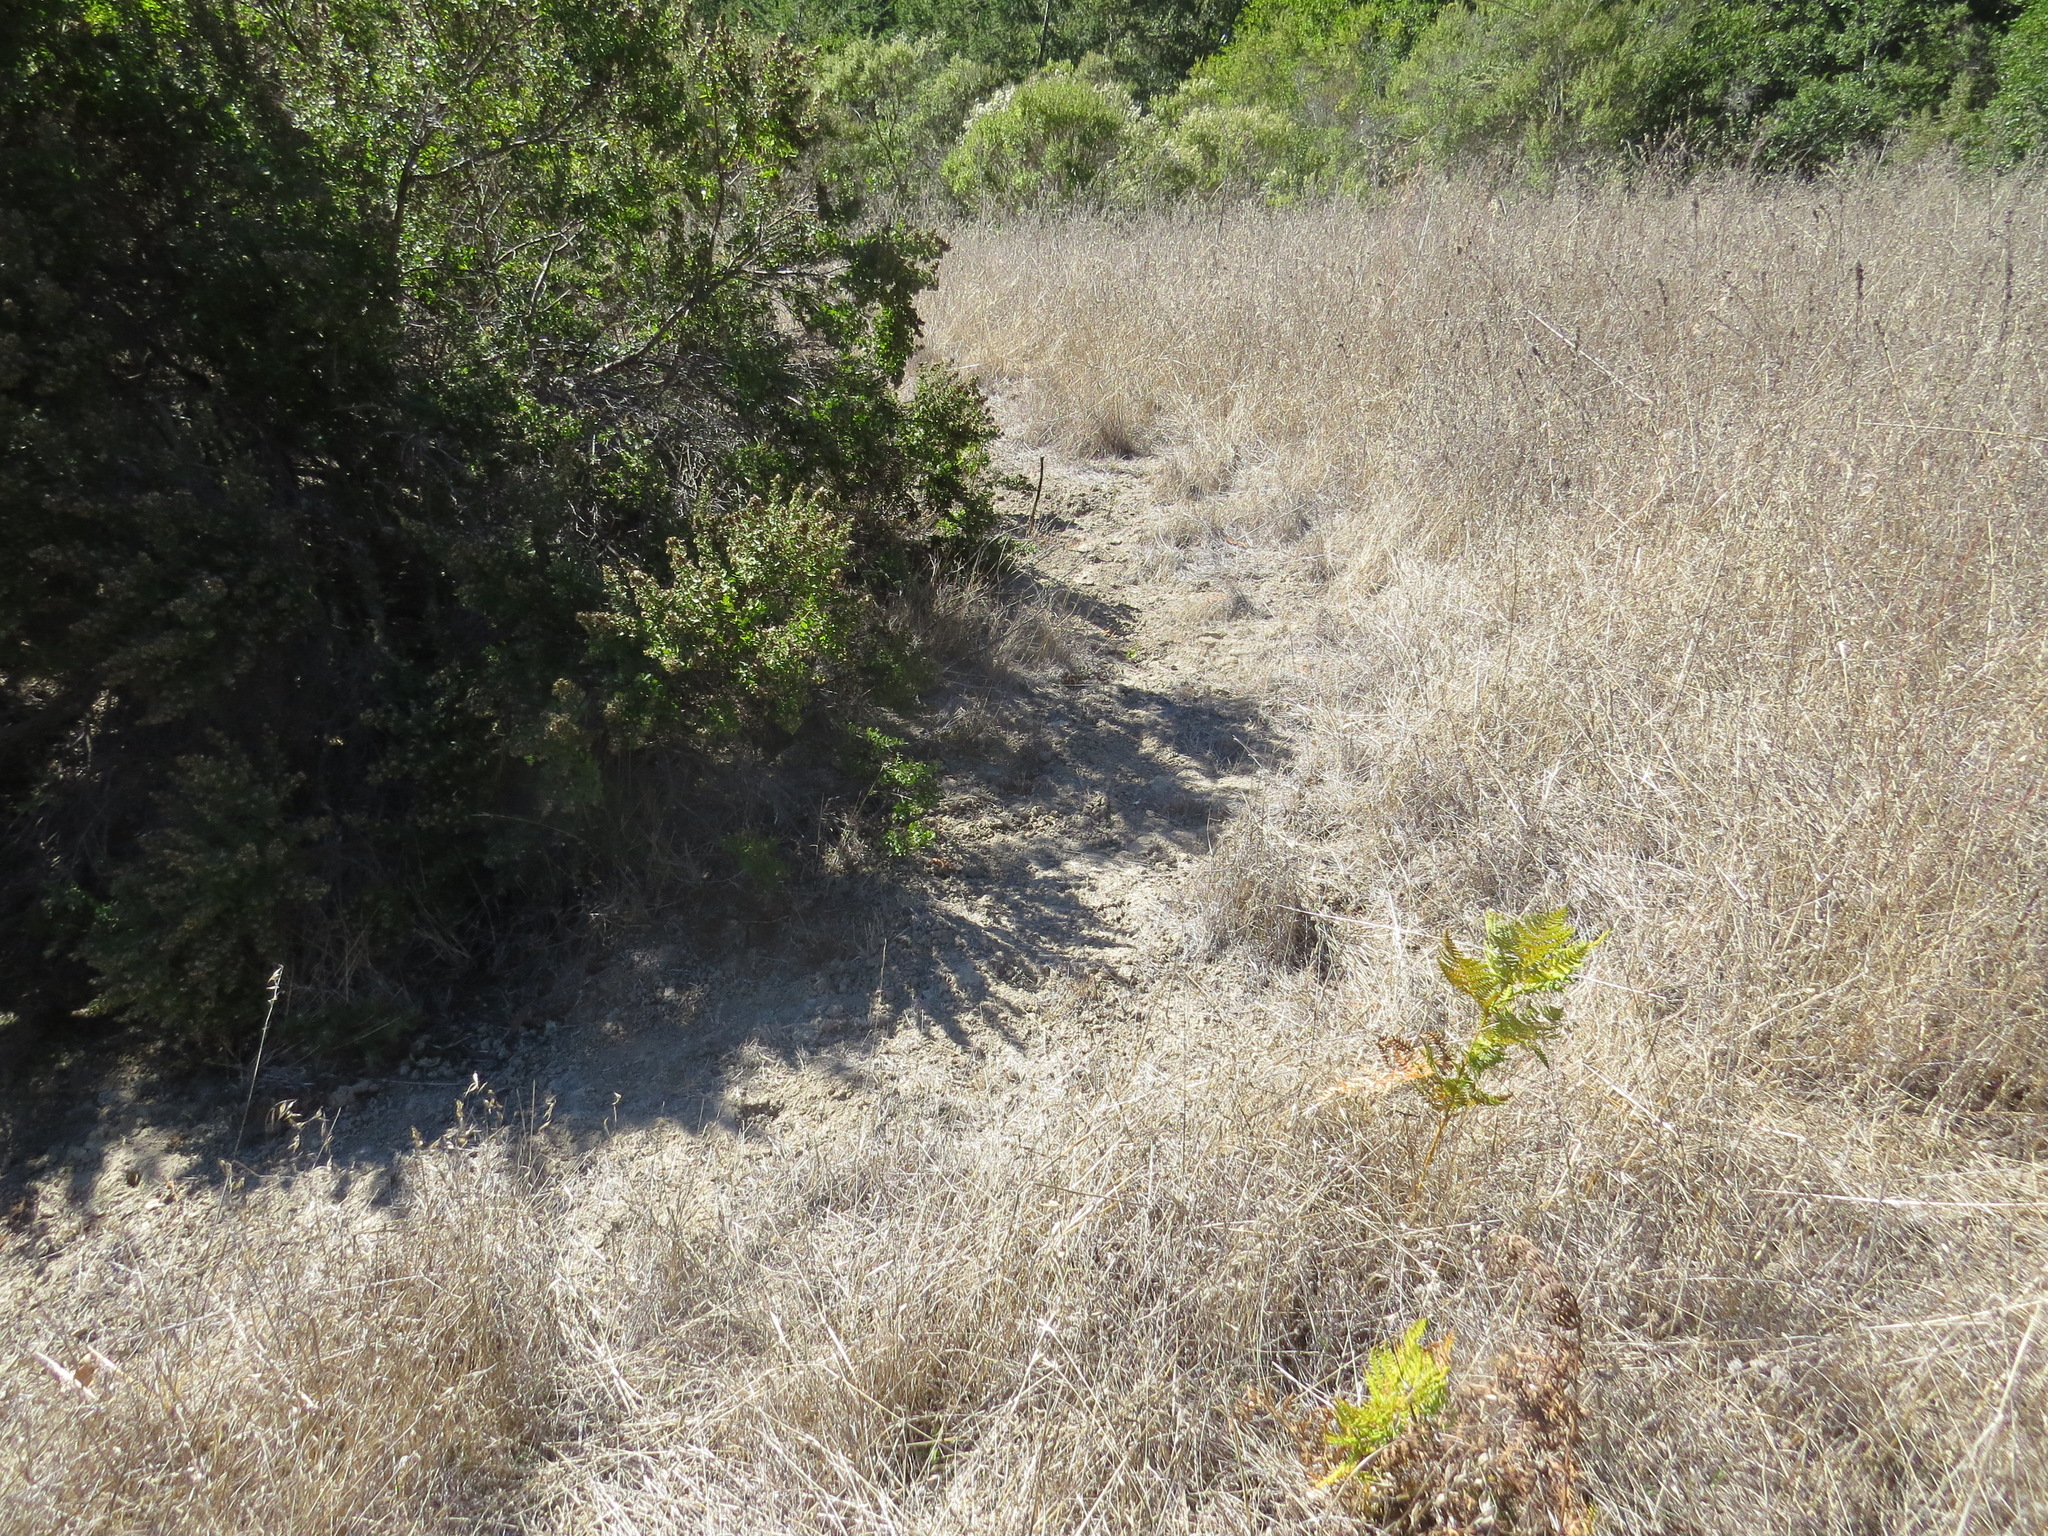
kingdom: Animalia
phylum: Chordata
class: Mammalia
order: Lagomorpha
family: Leporidae
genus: Sylvilagus
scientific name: Sylvilagus bachmani
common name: Brush rabbit
